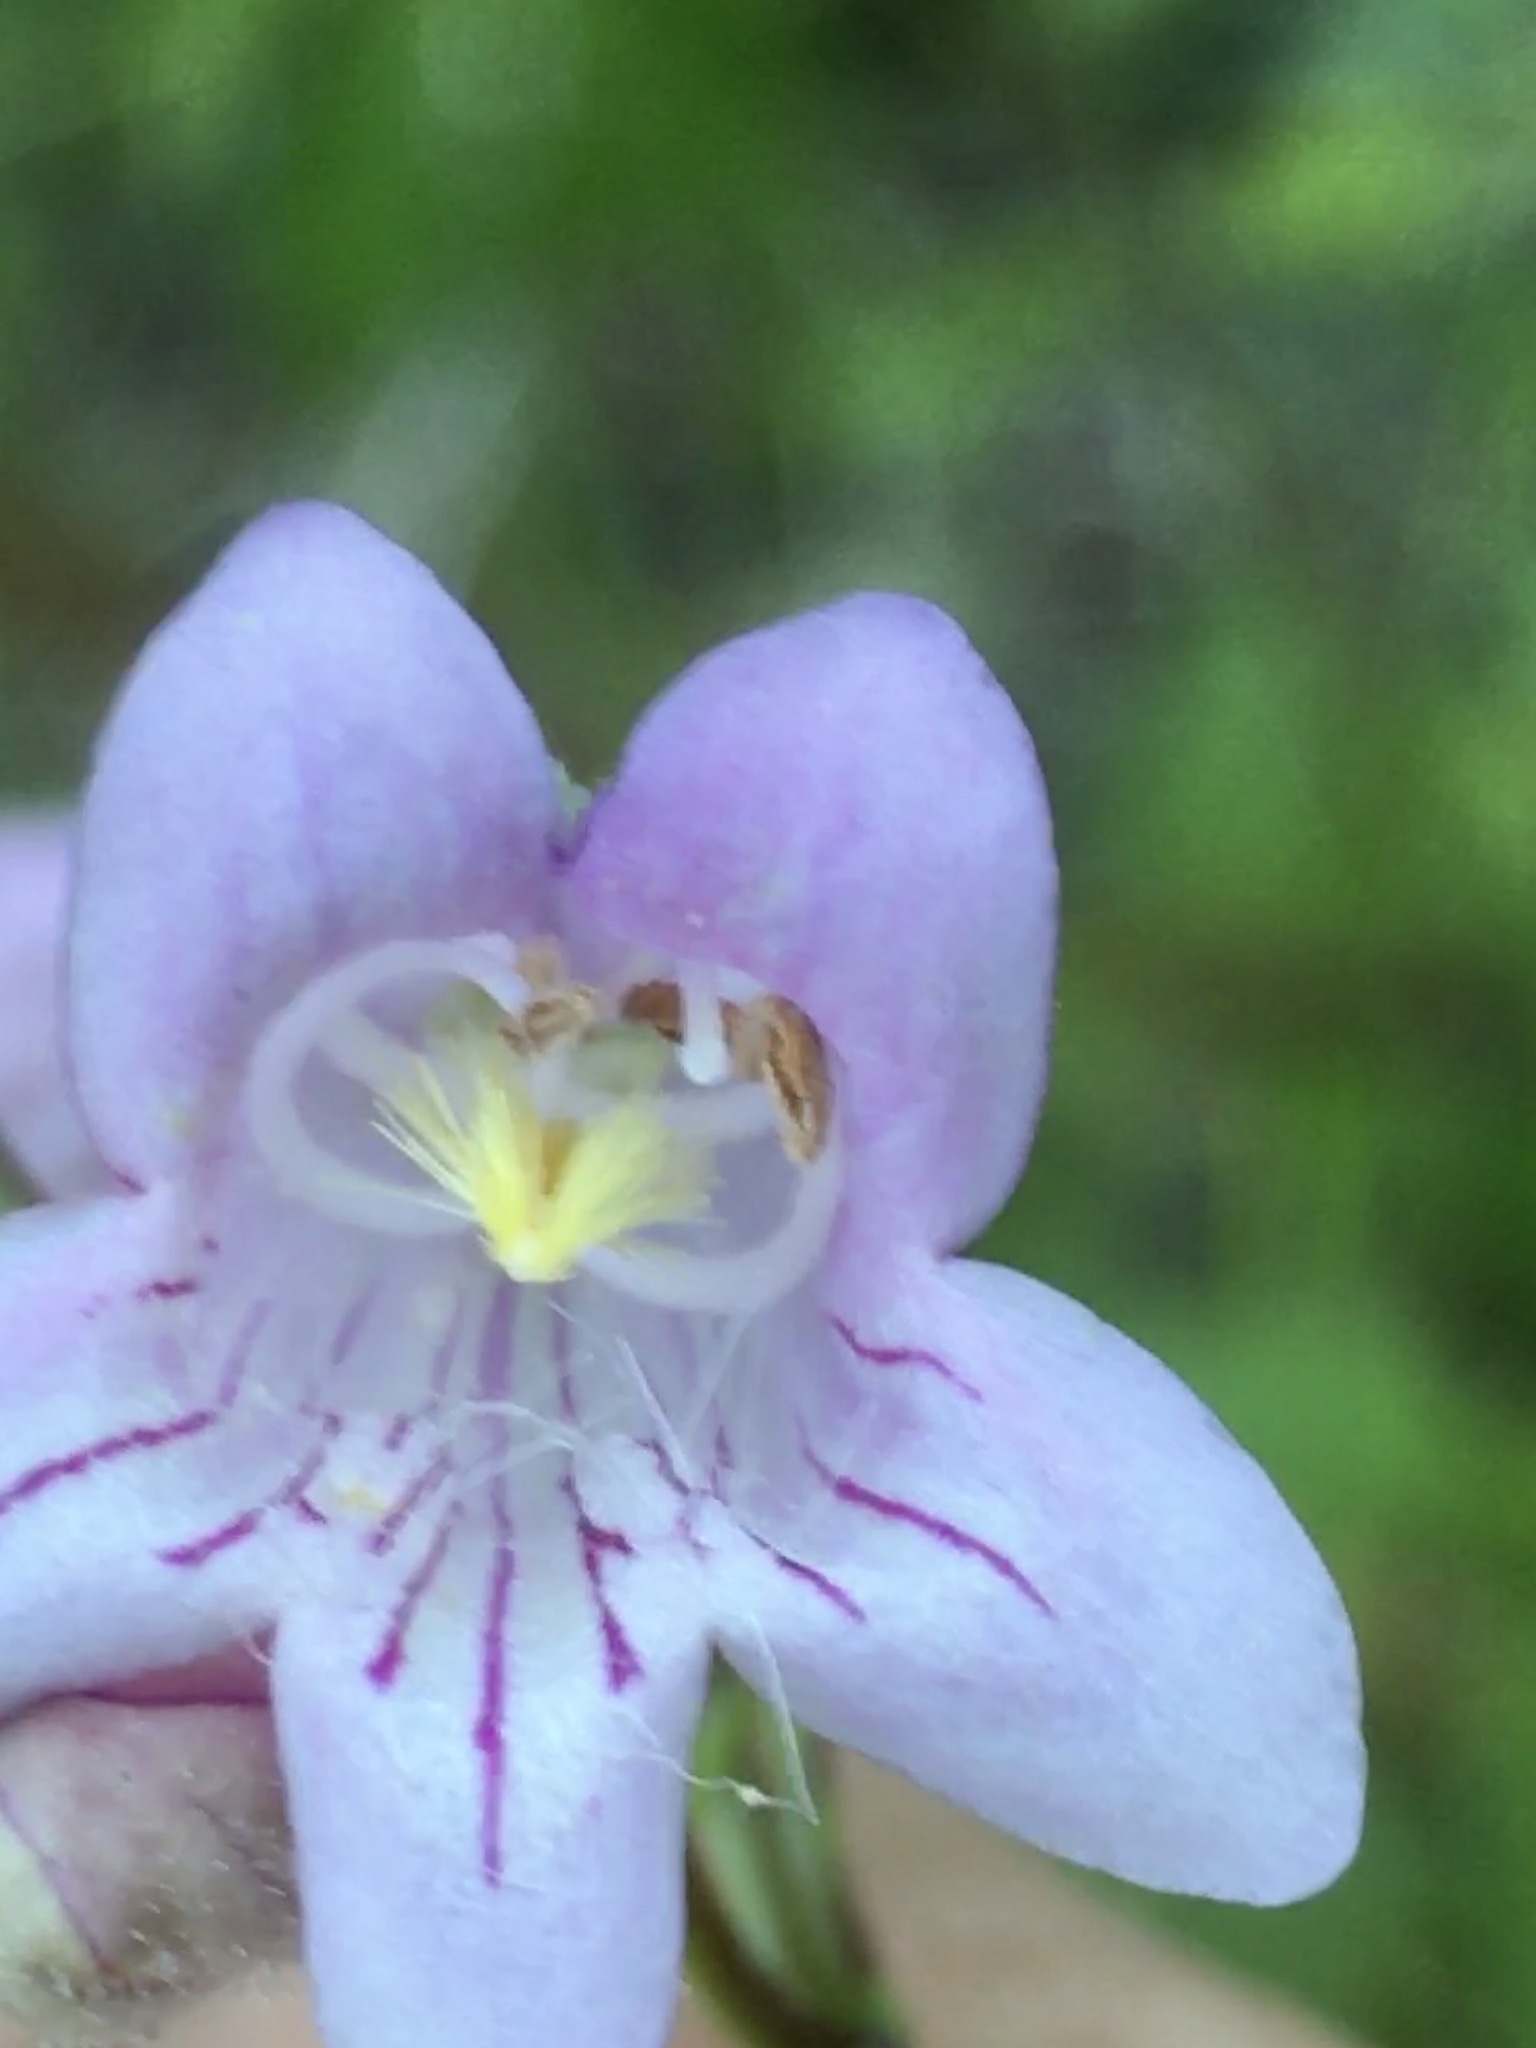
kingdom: Plantae
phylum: Tracheophyta
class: Magnoliopsida
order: Lamiales
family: Plantaginaceae
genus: Penstemon
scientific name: Penstemon laevigatus
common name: Eastern beardtongue
